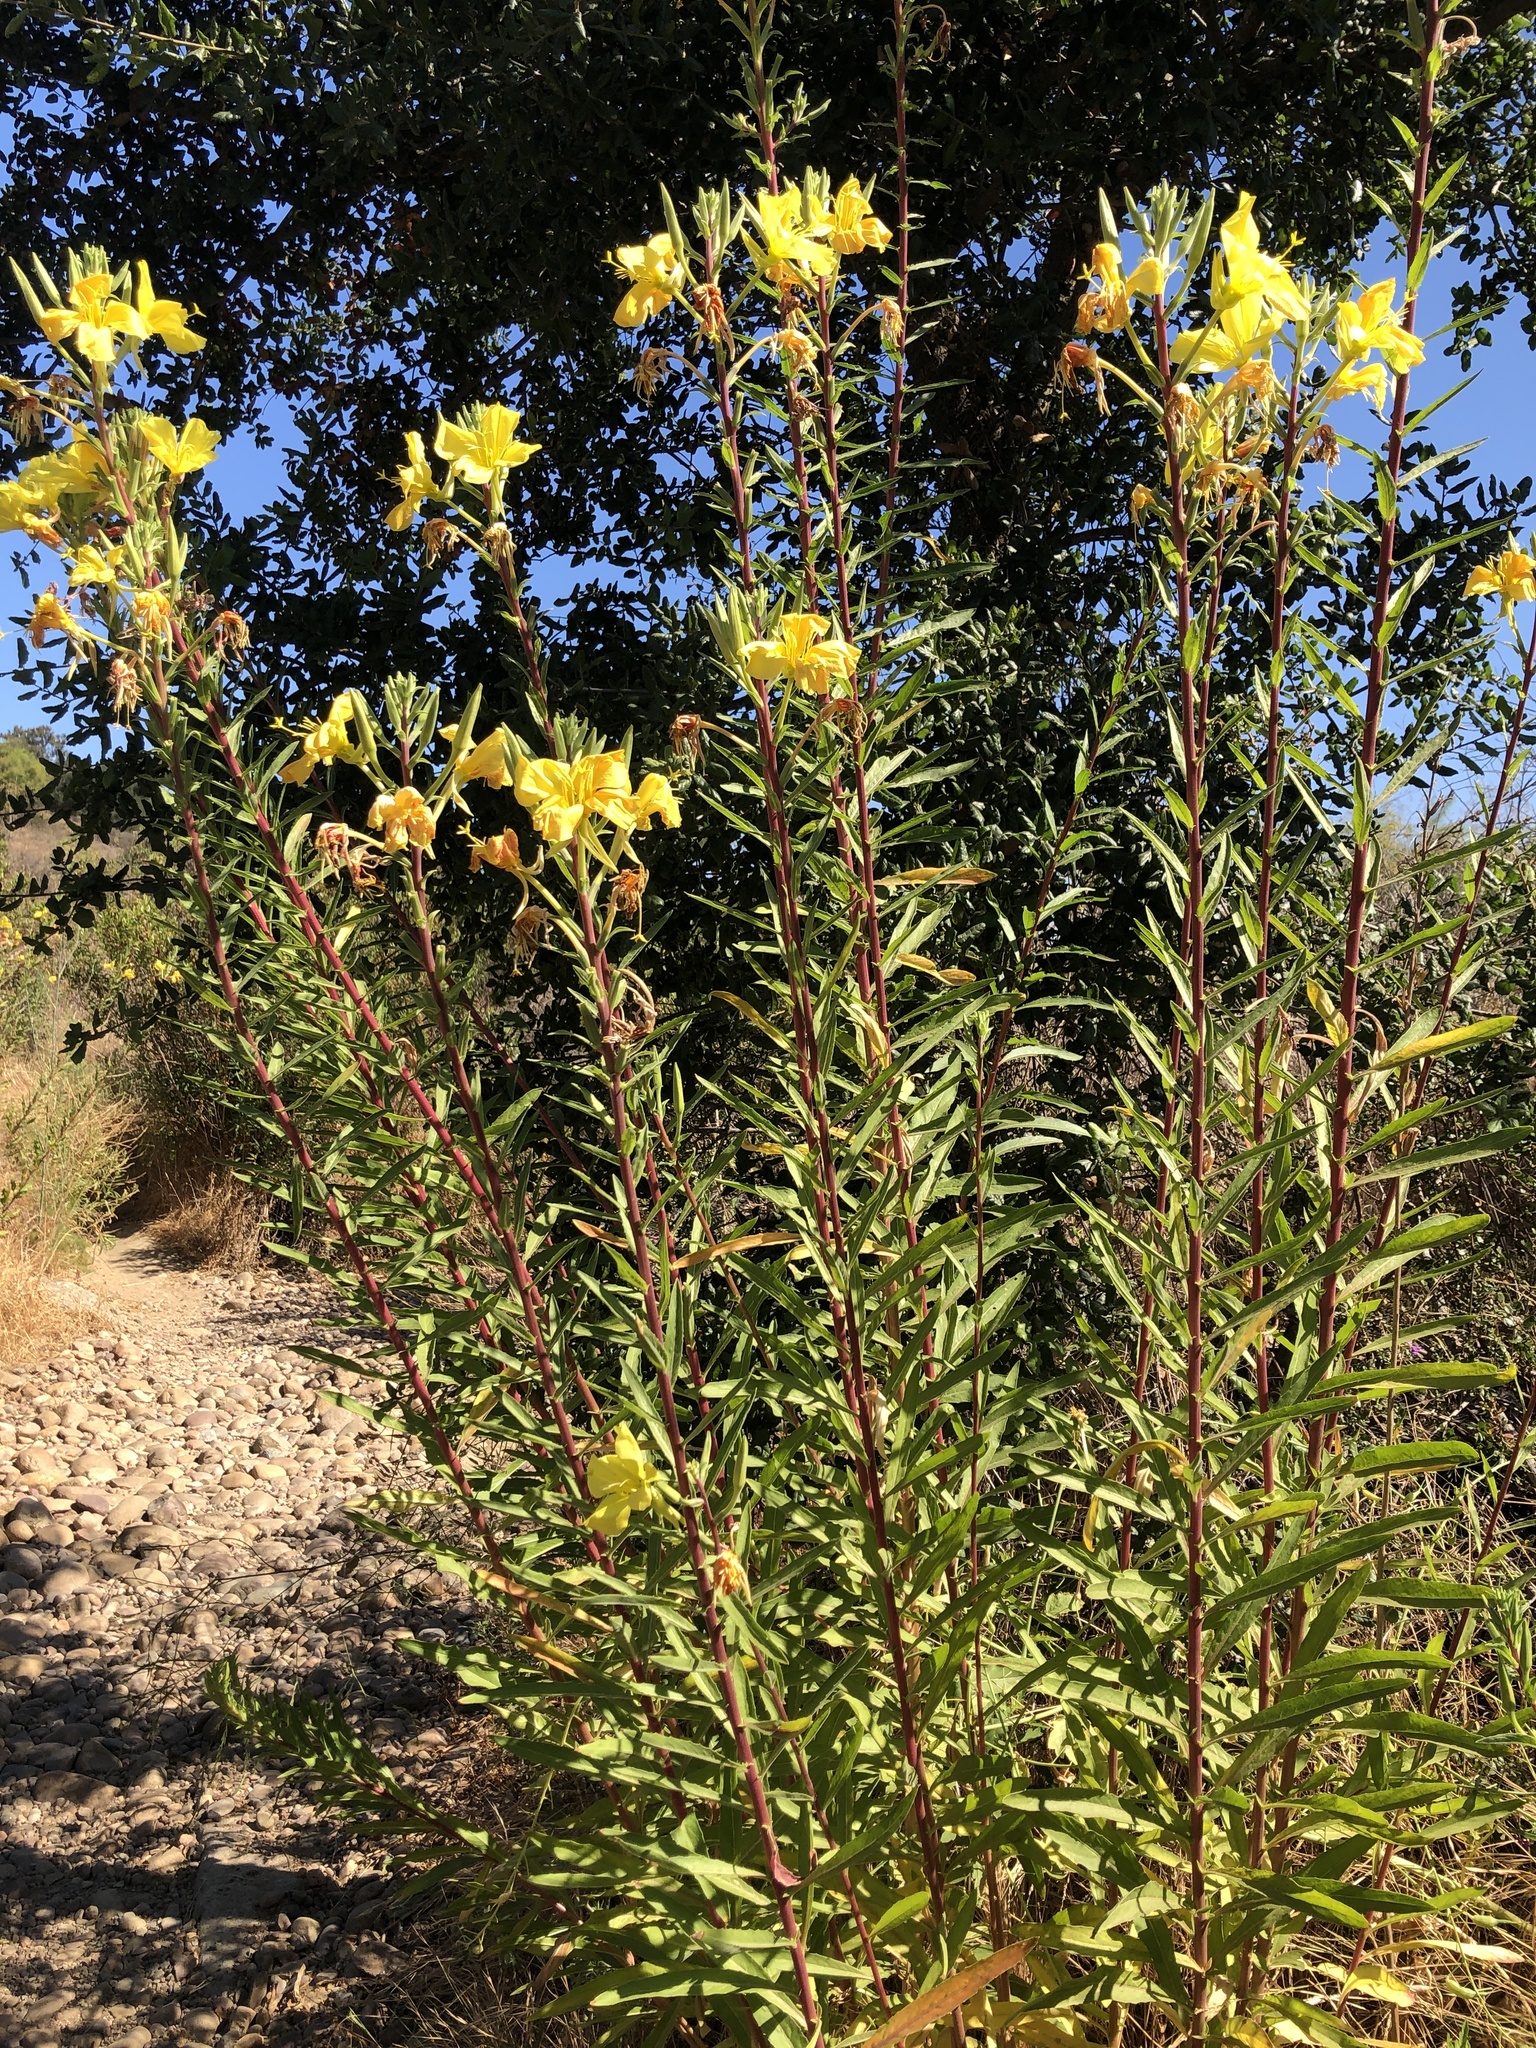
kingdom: Plantae
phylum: Tracheophyta
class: Magnoliopsida
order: Myrtales
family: Onagraceae
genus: Oenothera
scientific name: Oenothera elata
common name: Hooker's evening-primrose
